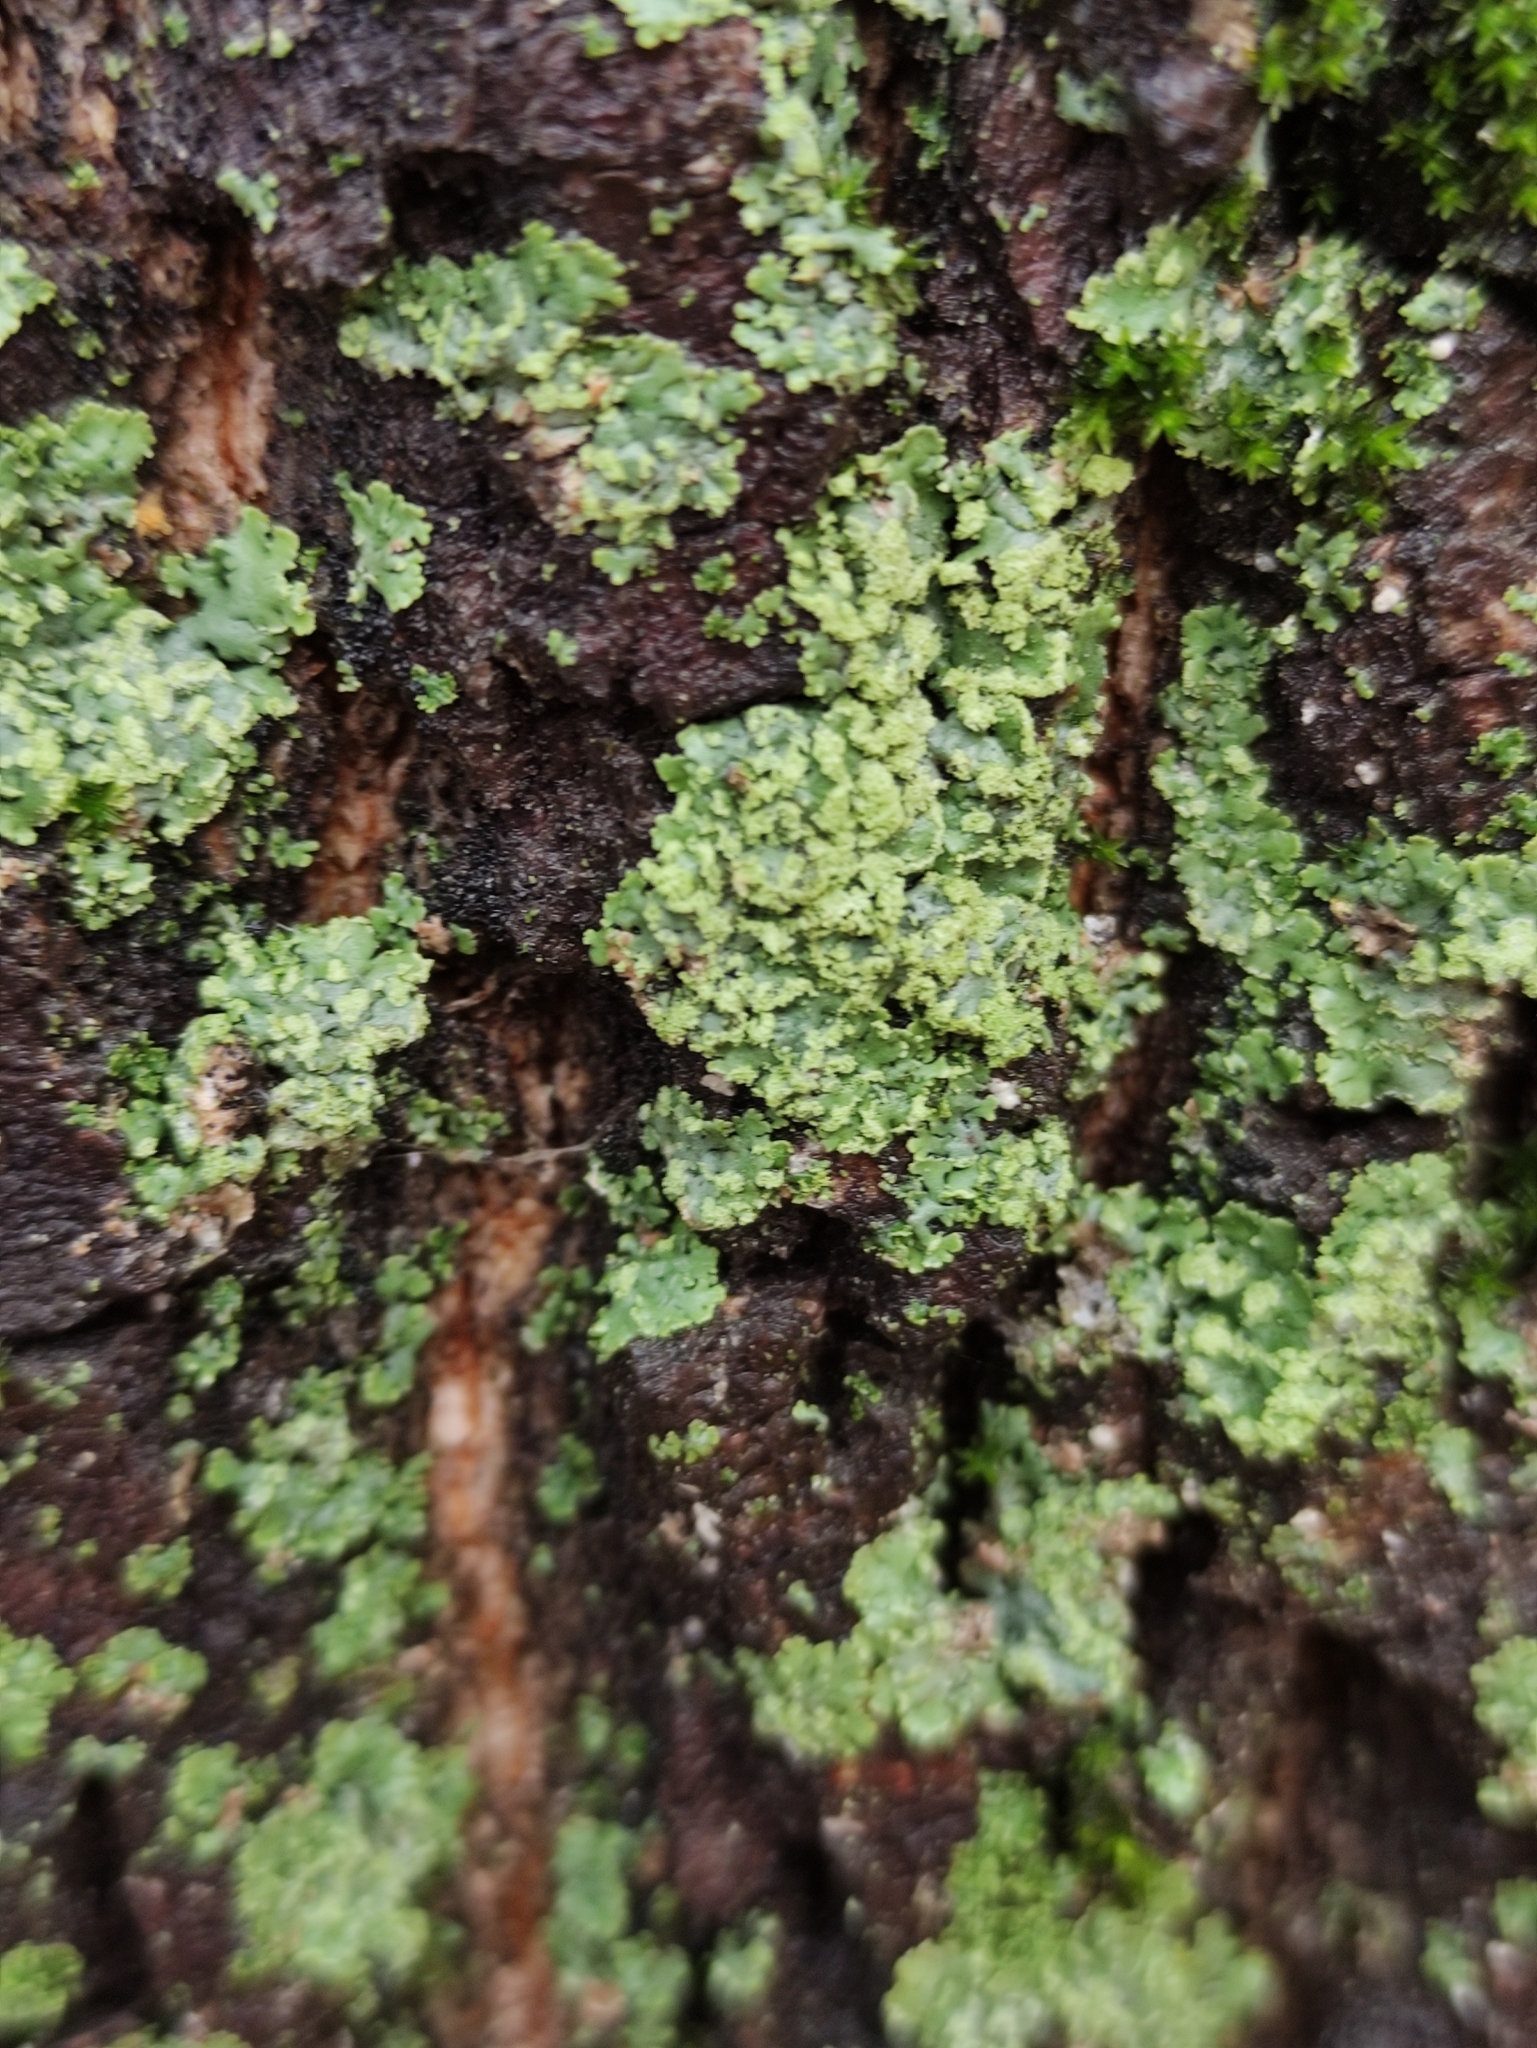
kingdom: Fungi
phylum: Ascomycota
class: Lecanoromycetes
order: Caliciales
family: Physciaceae
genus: Phaeophyscia
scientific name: Phaeophyscia orbicularis
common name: Mealy shadow lichen
